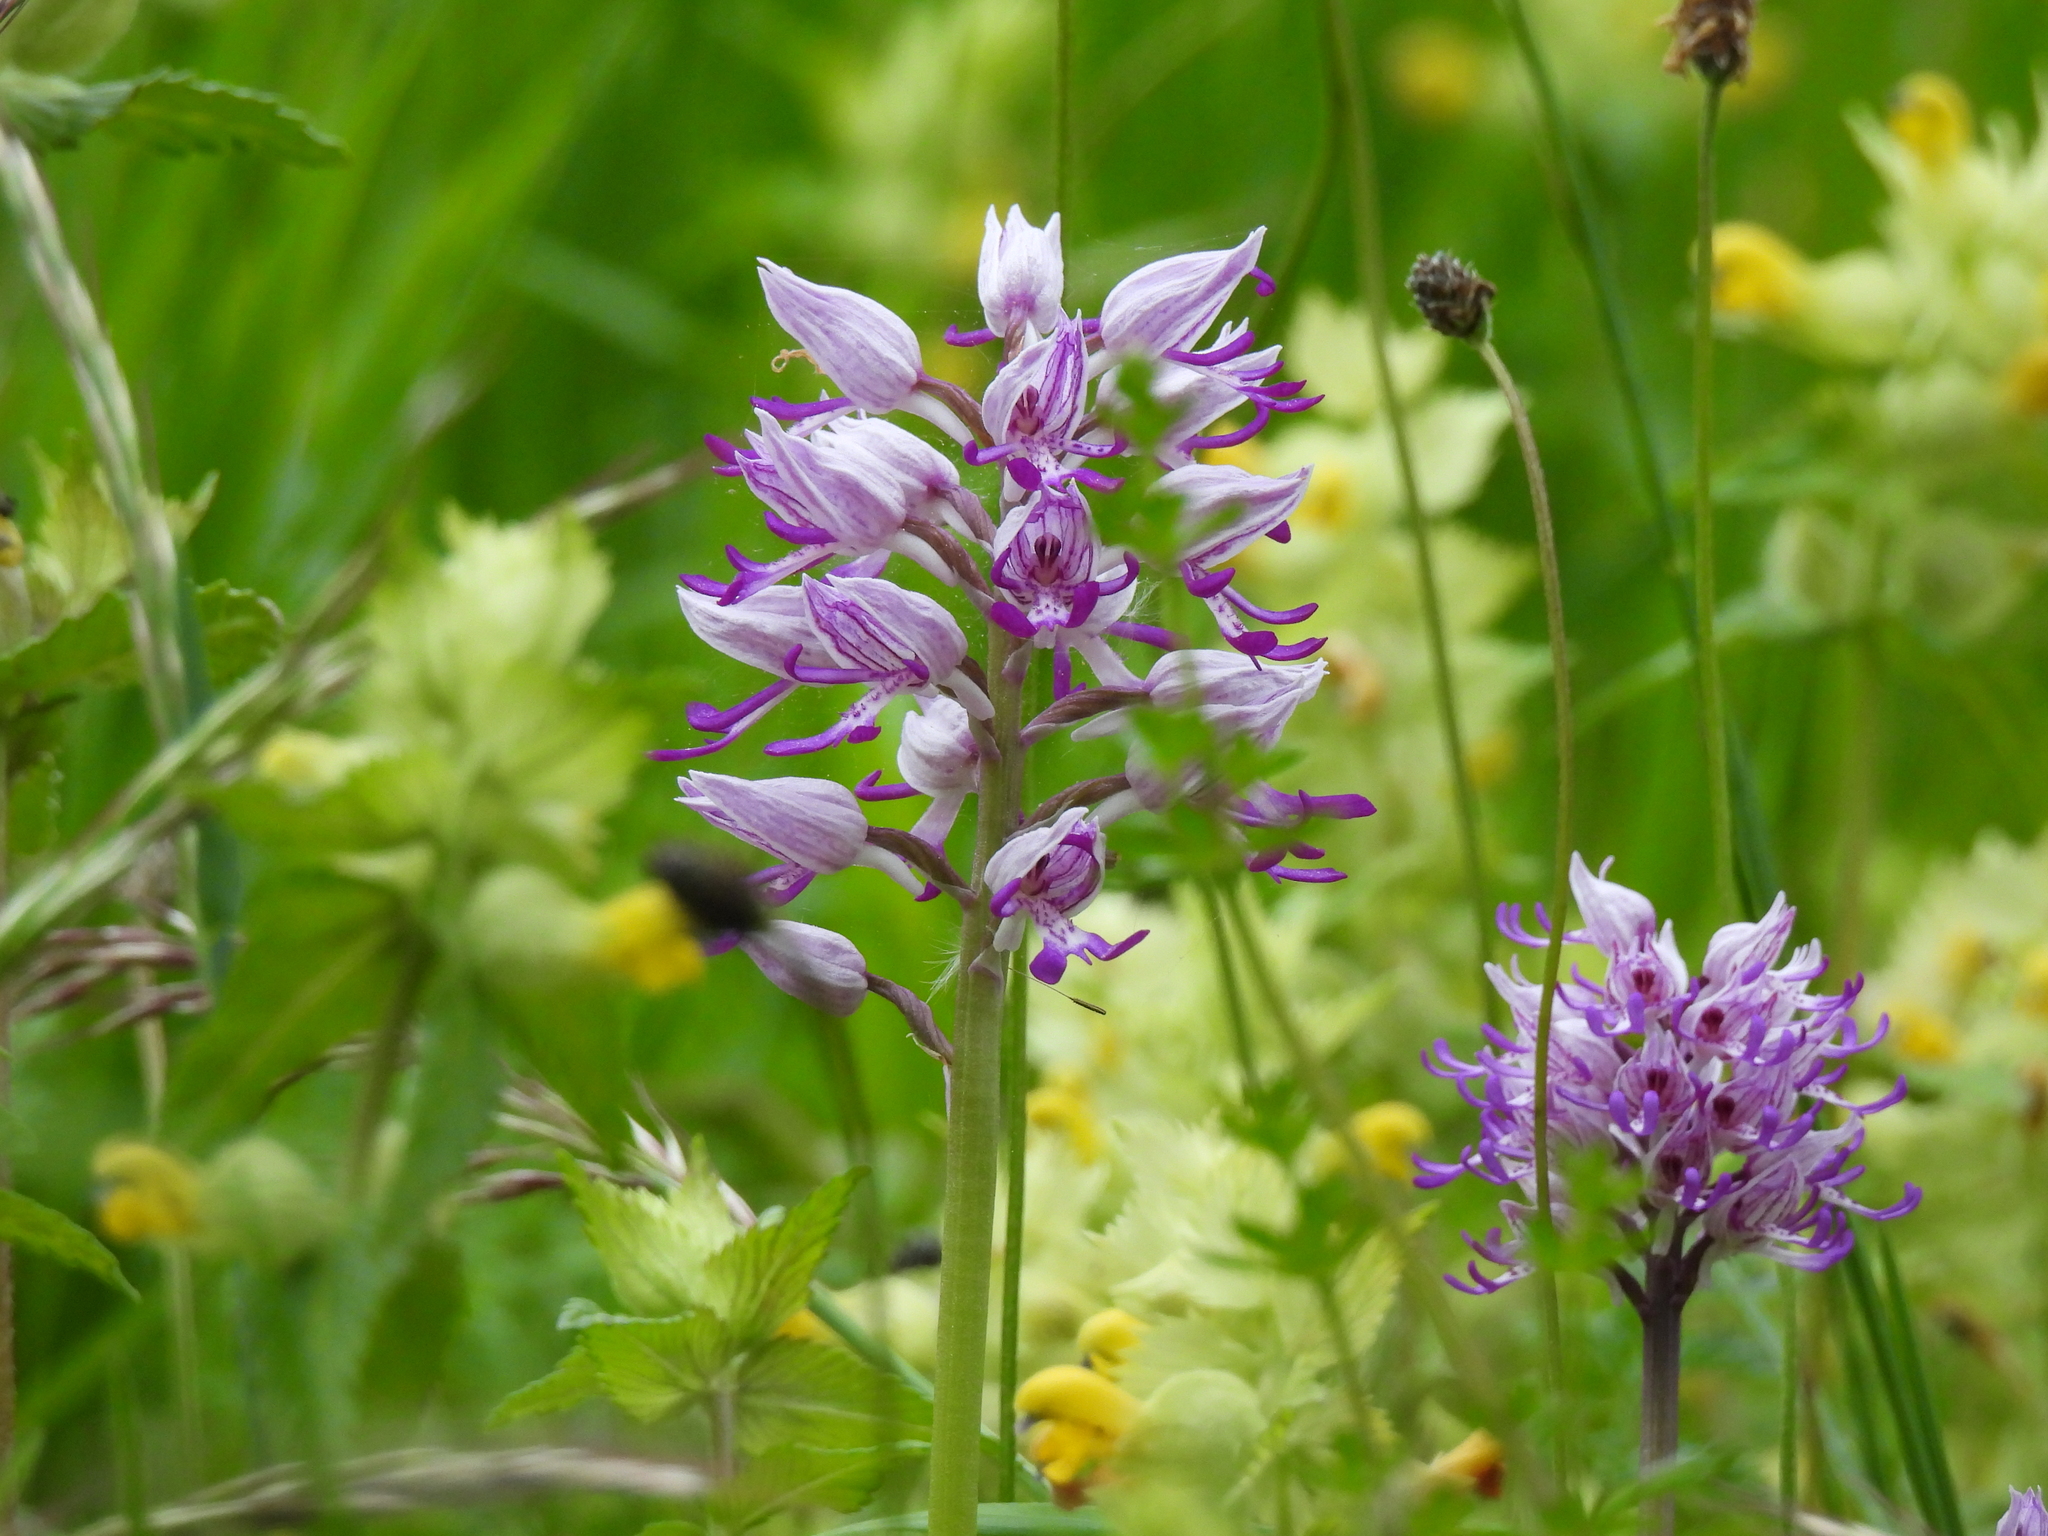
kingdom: Plantae
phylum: Tracheophyta
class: Liliopsida
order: Asparagales
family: Orchidaceae
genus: Orchis
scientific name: Orchis militaris
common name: Military orchid
